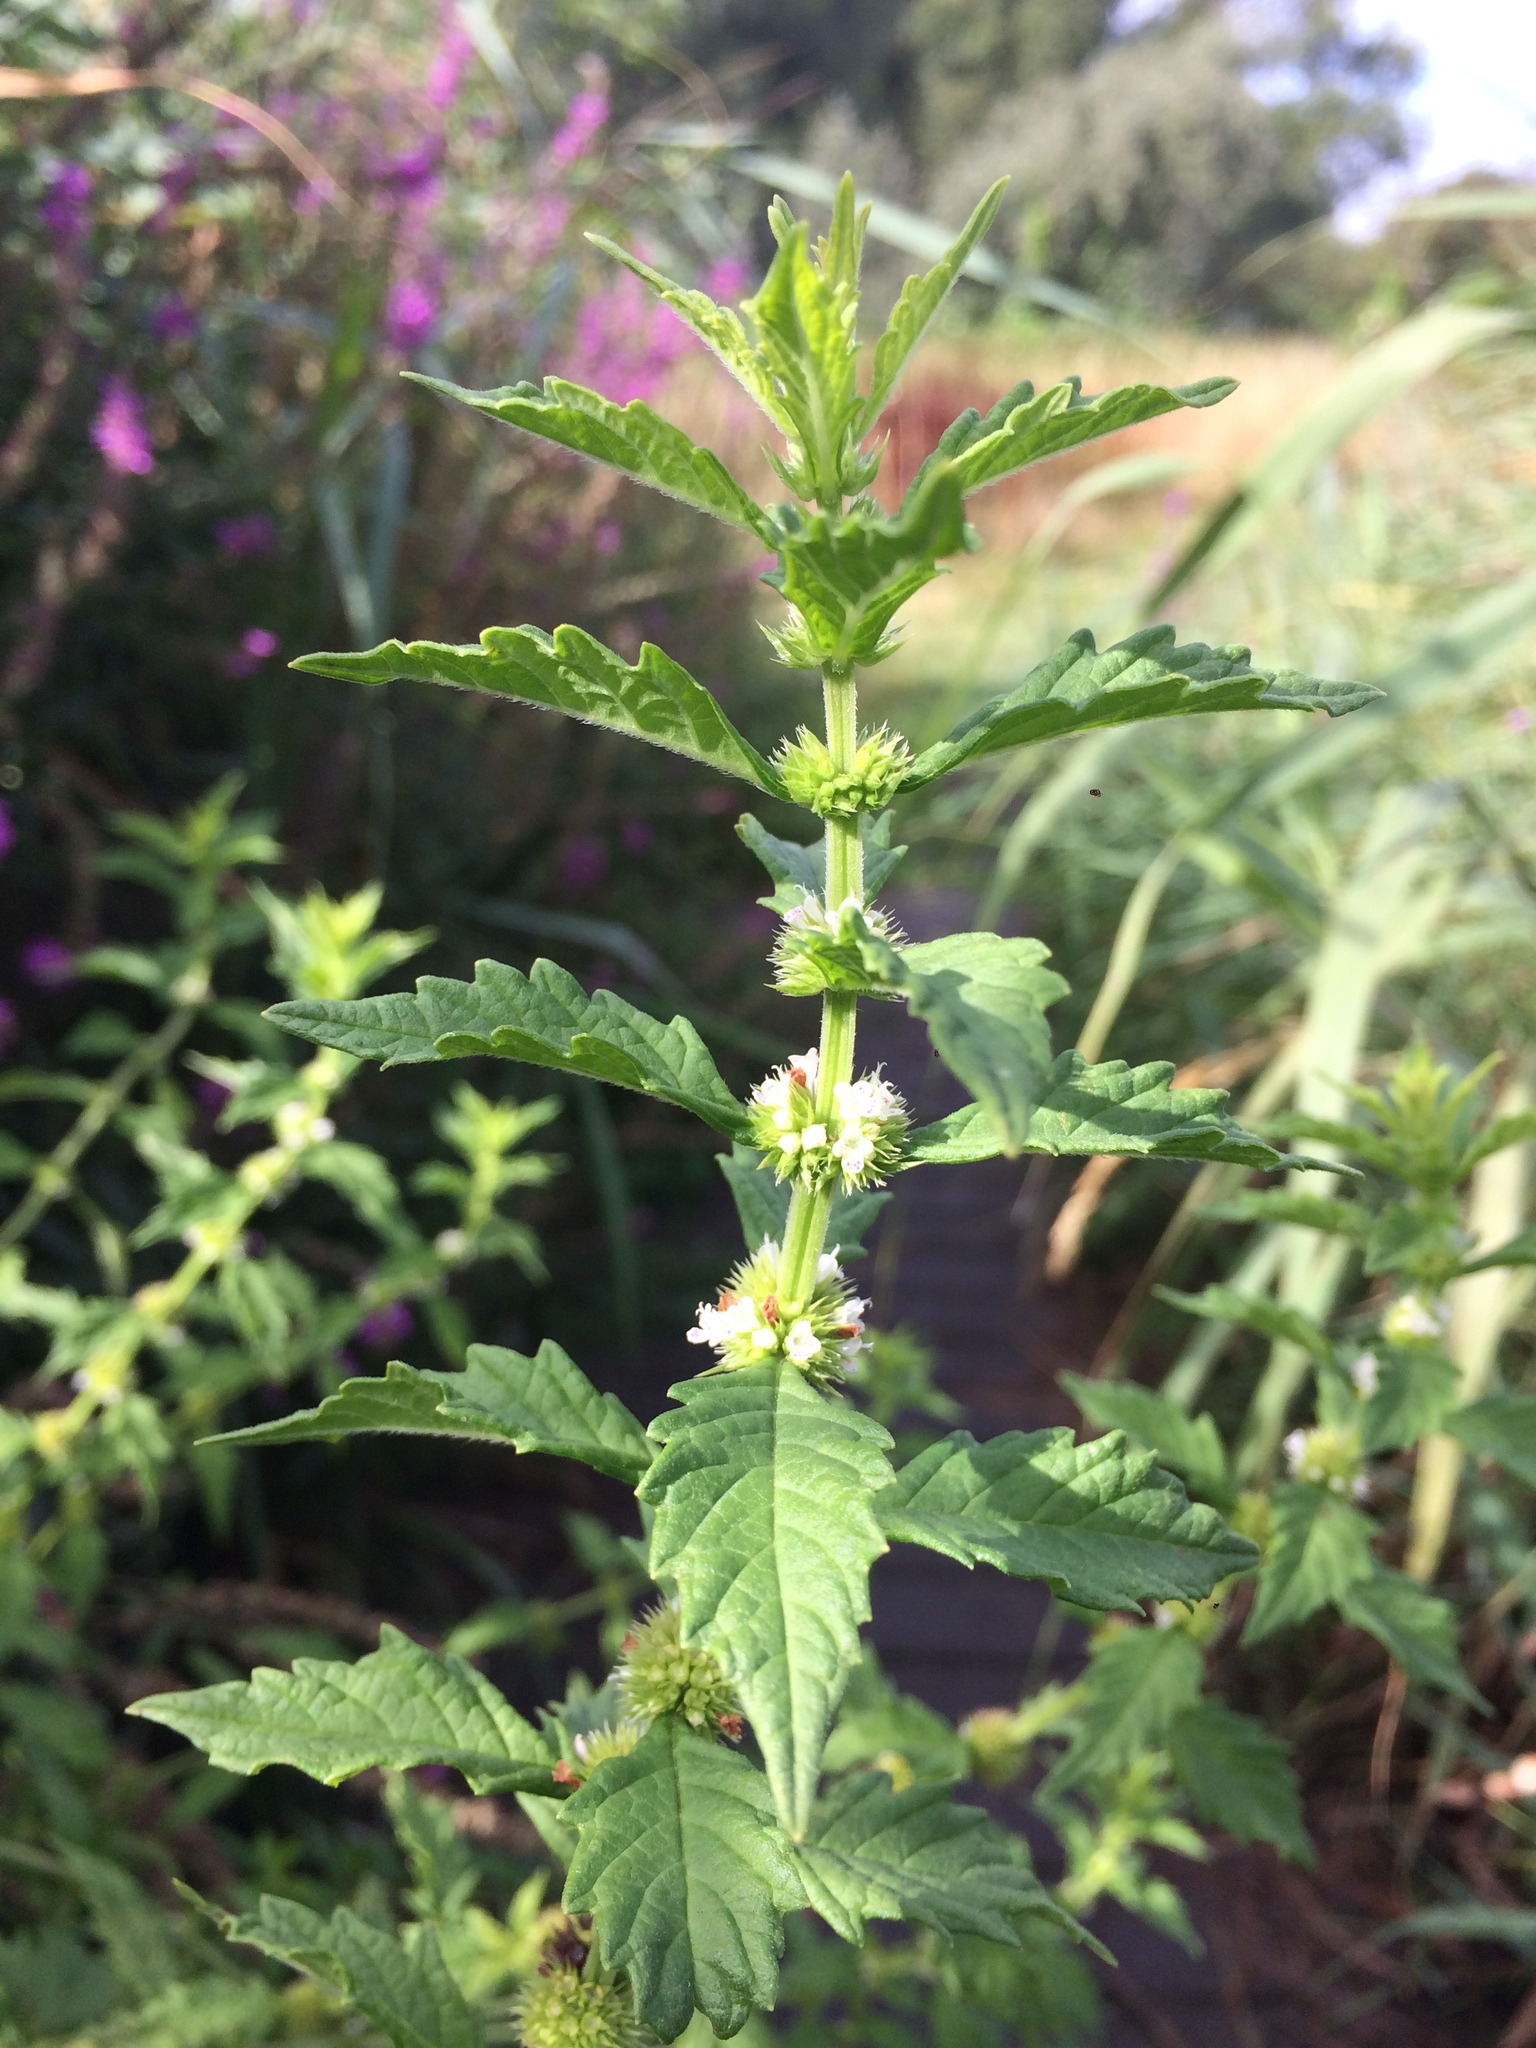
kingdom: Plantae
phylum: Tracheophyta
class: Magnoliopsida
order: Lamiales
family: Lamiaceae
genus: Lycopus
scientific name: Lycopus europaeus
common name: European bugleweed
